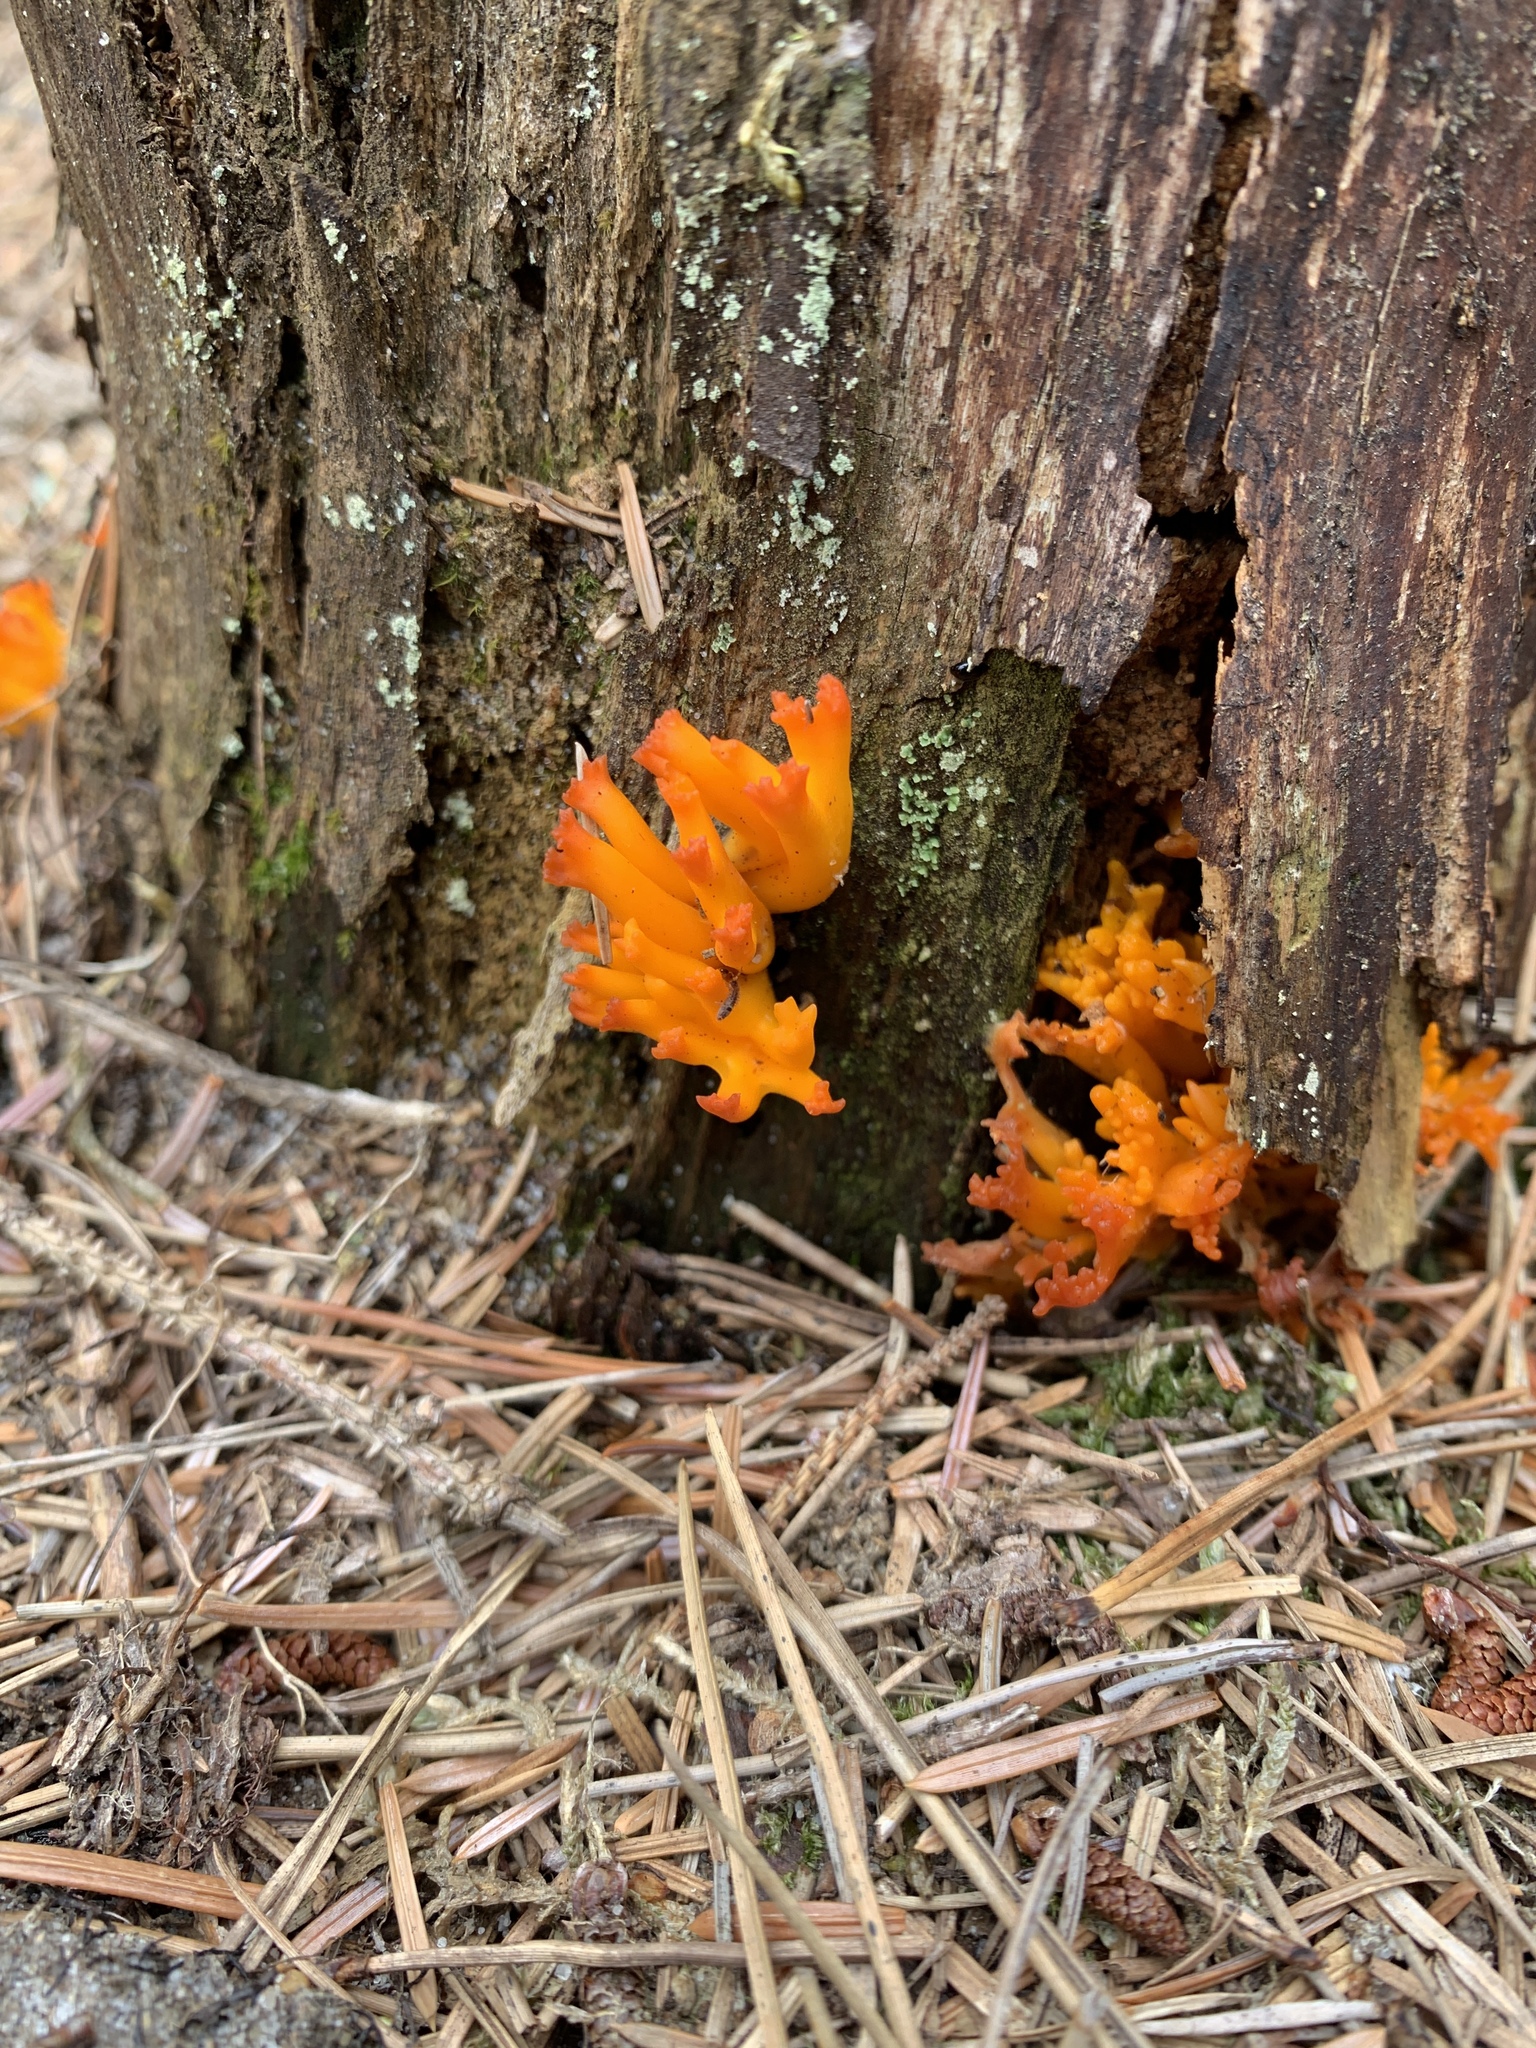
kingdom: Fungi
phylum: Basidiomycota
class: Dacrymycetes
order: Dacrymycetales
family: Dacrymycetaceae
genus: Calocera
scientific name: Calocera viscosa
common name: Yellow stagshorn
